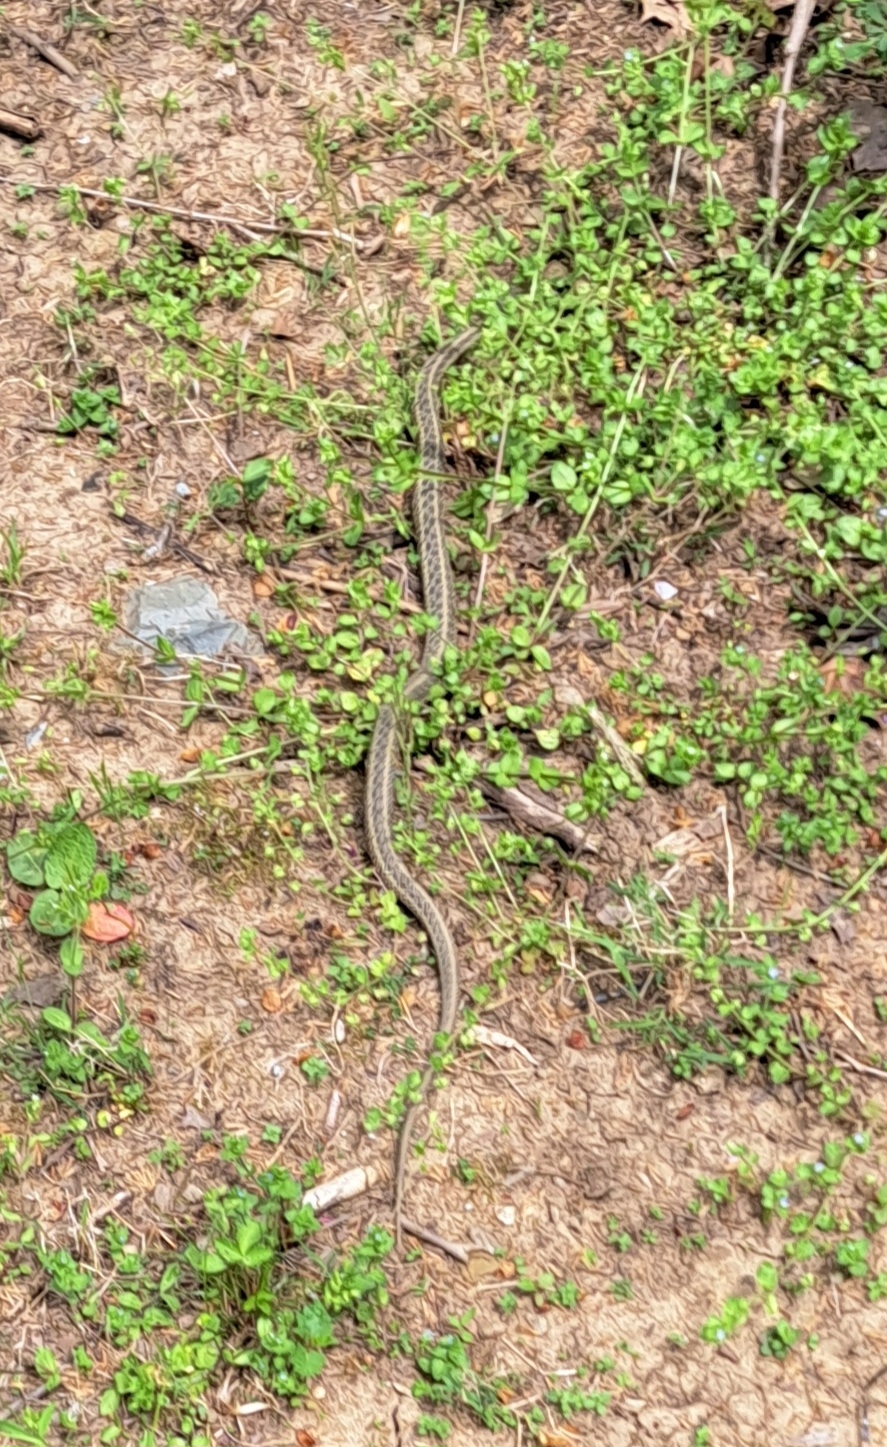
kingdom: Animalia
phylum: Chordata
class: Squamata
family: Colubridae
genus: Thamnophis
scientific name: Thamnophis sirtalis
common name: Common garter snake
